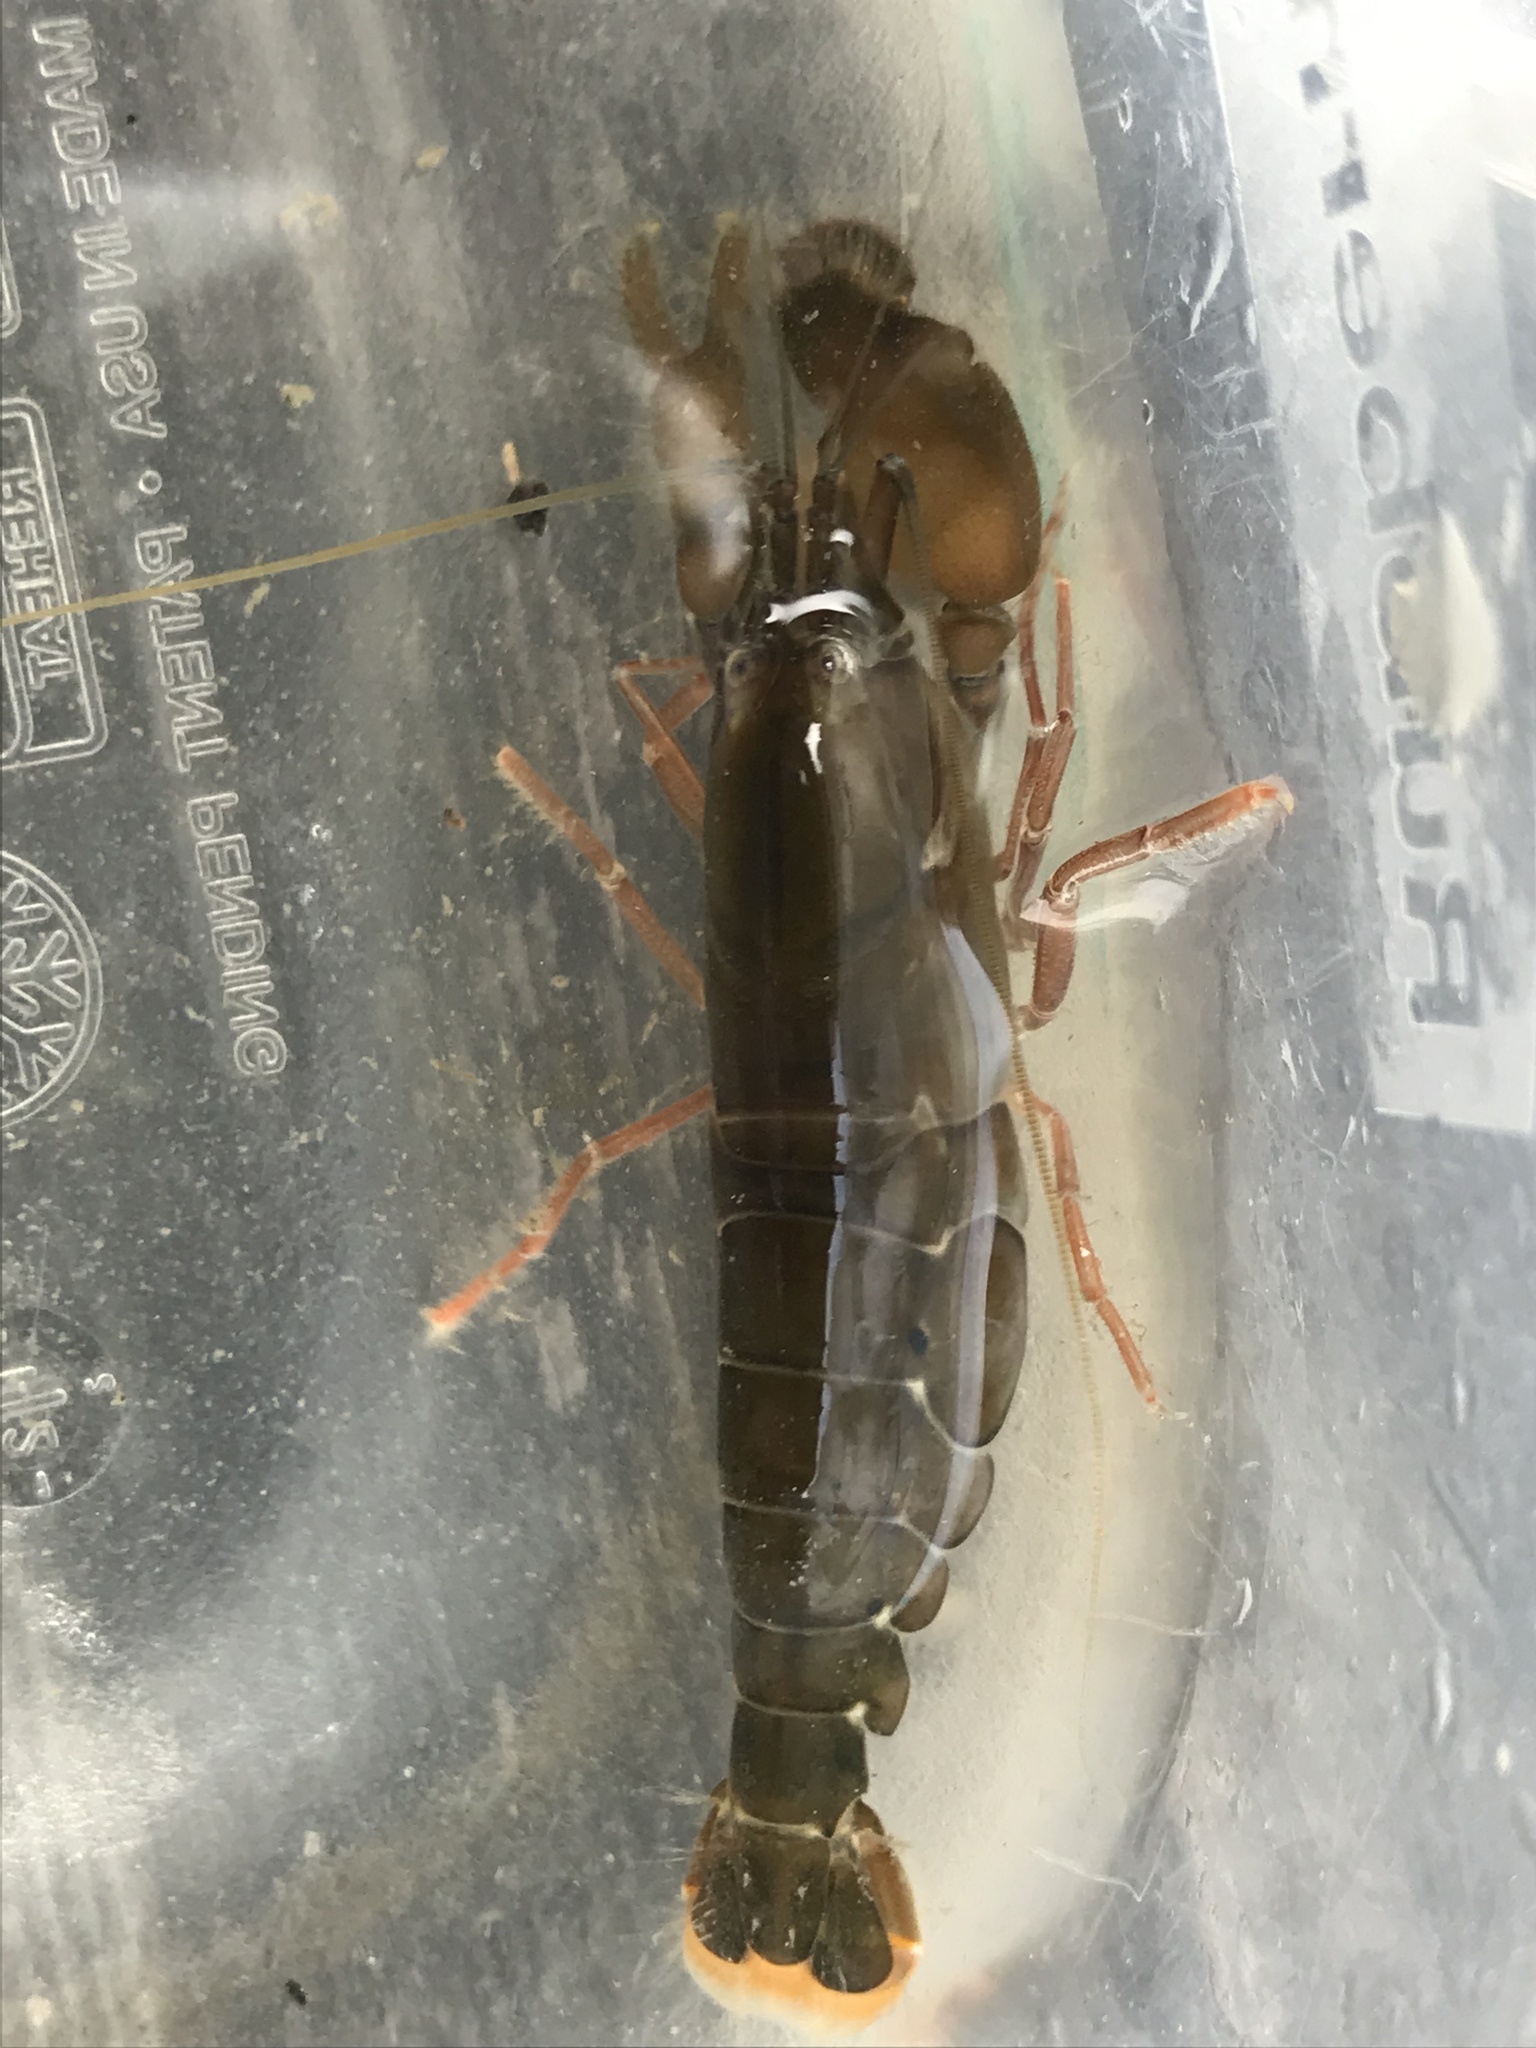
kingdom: Animalia
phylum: Arthropoda
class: Malacostraca
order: Decapoda
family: Alpheidae
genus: Alpheus
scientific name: Alpheus heterochaelis
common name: Bigclaw snapping shrimp
